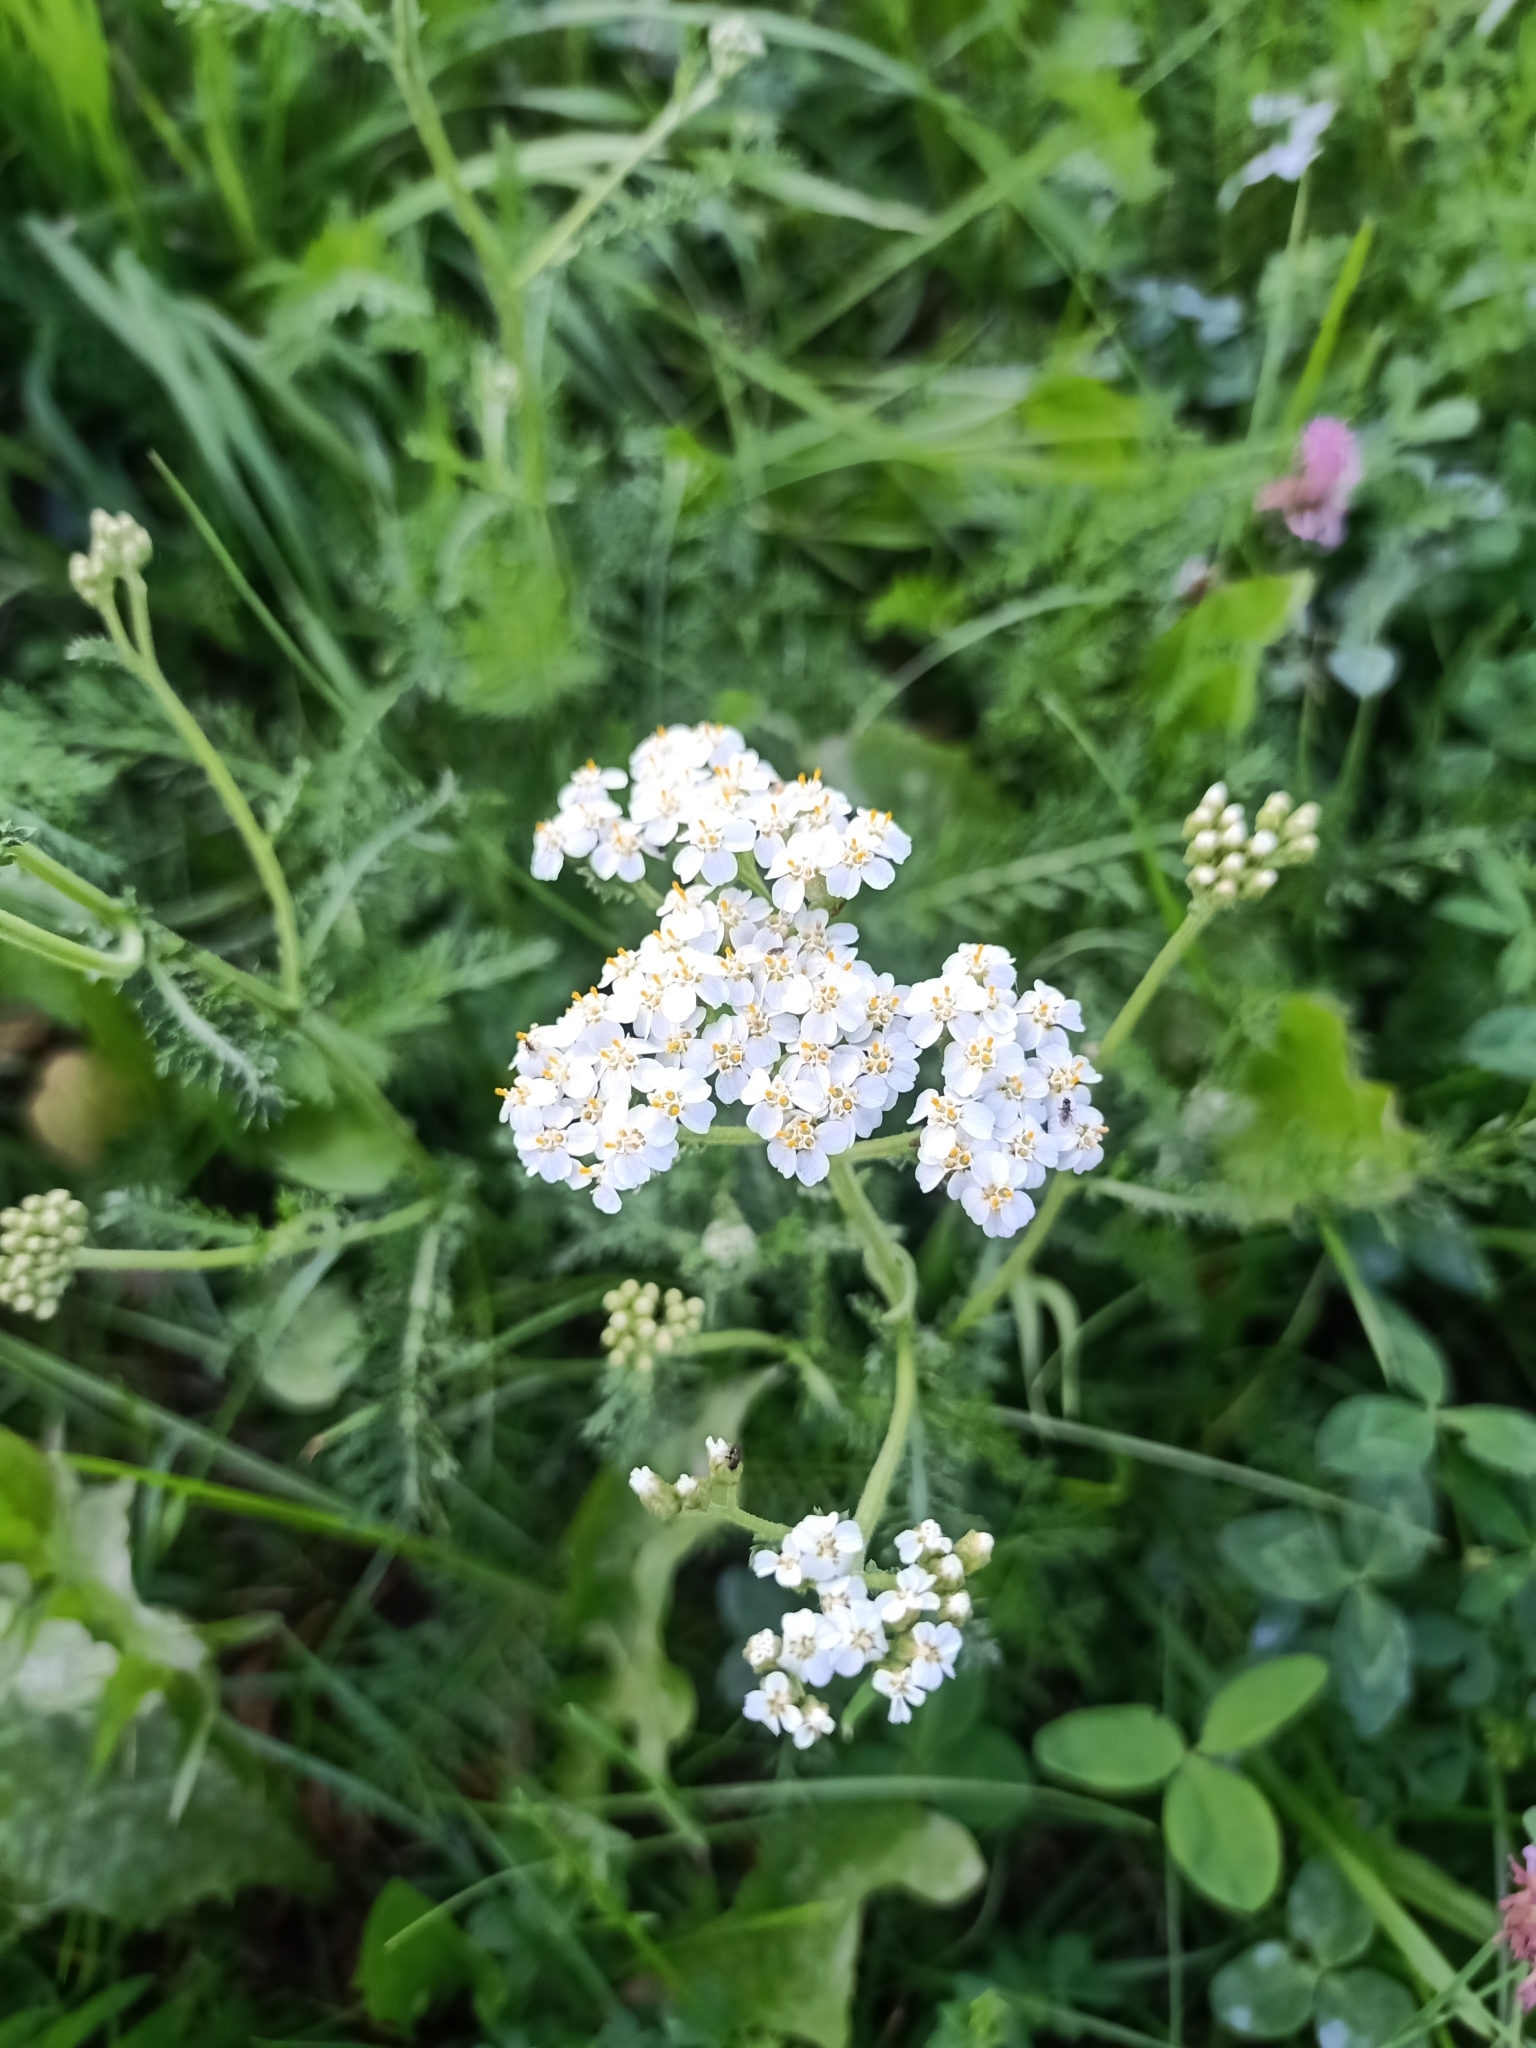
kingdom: Plantae
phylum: Tracheophyta
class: Magnoliopsida
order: Asterales
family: Asteraceae
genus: Achillea
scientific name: Achillea millefolium
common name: Yarrow
